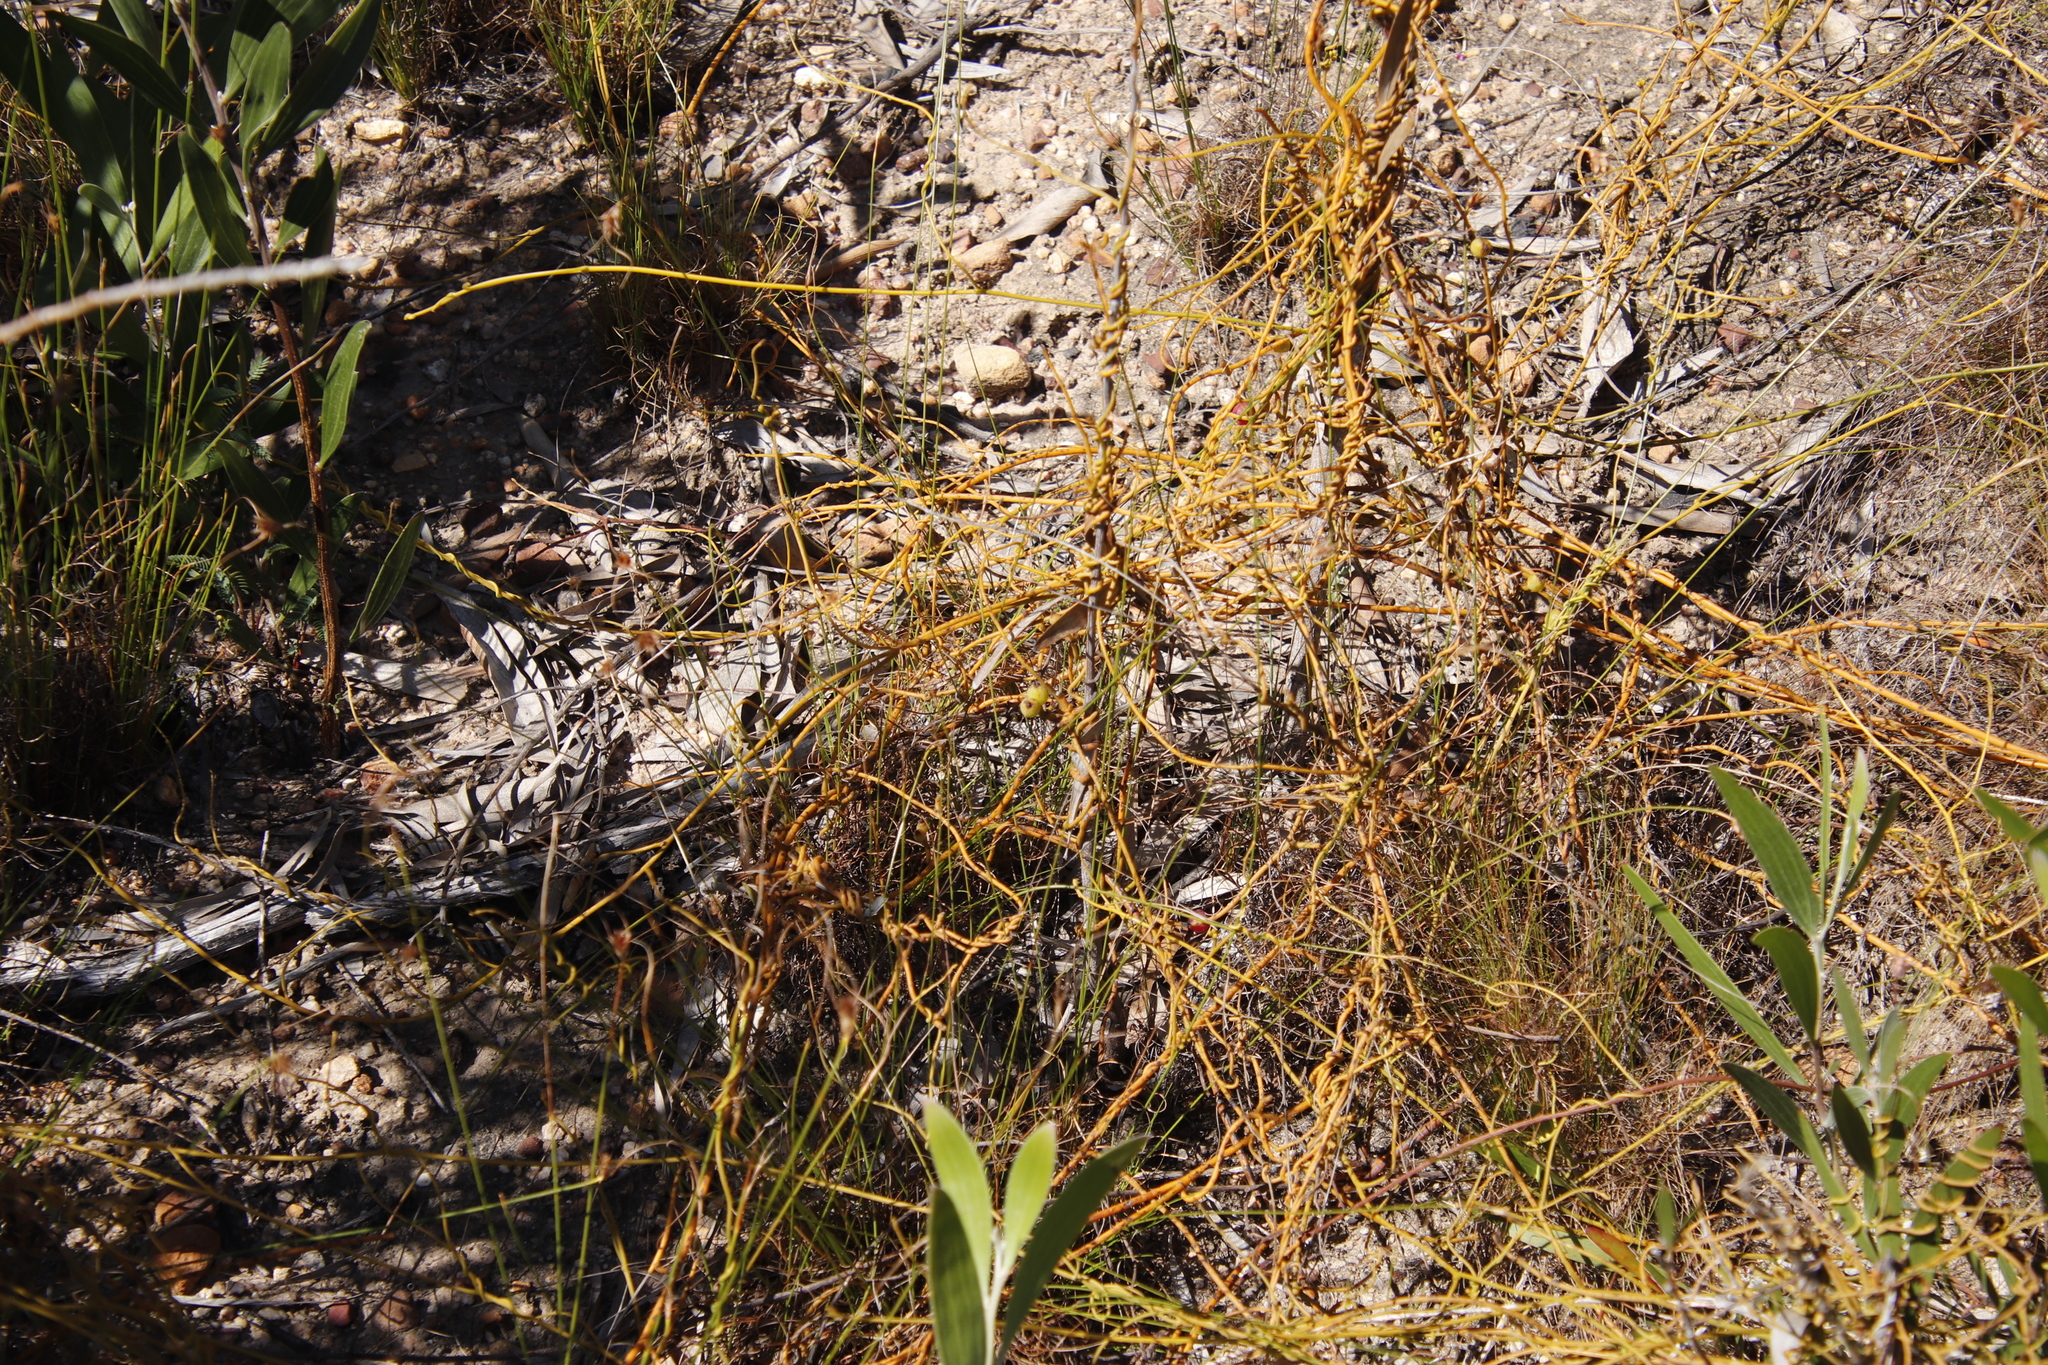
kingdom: Plantae
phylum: Tracheophyta
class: Magnoliopsida
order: Laurales
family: Lauraceae
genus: Cassytha
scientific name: Cassytha ciliolata
